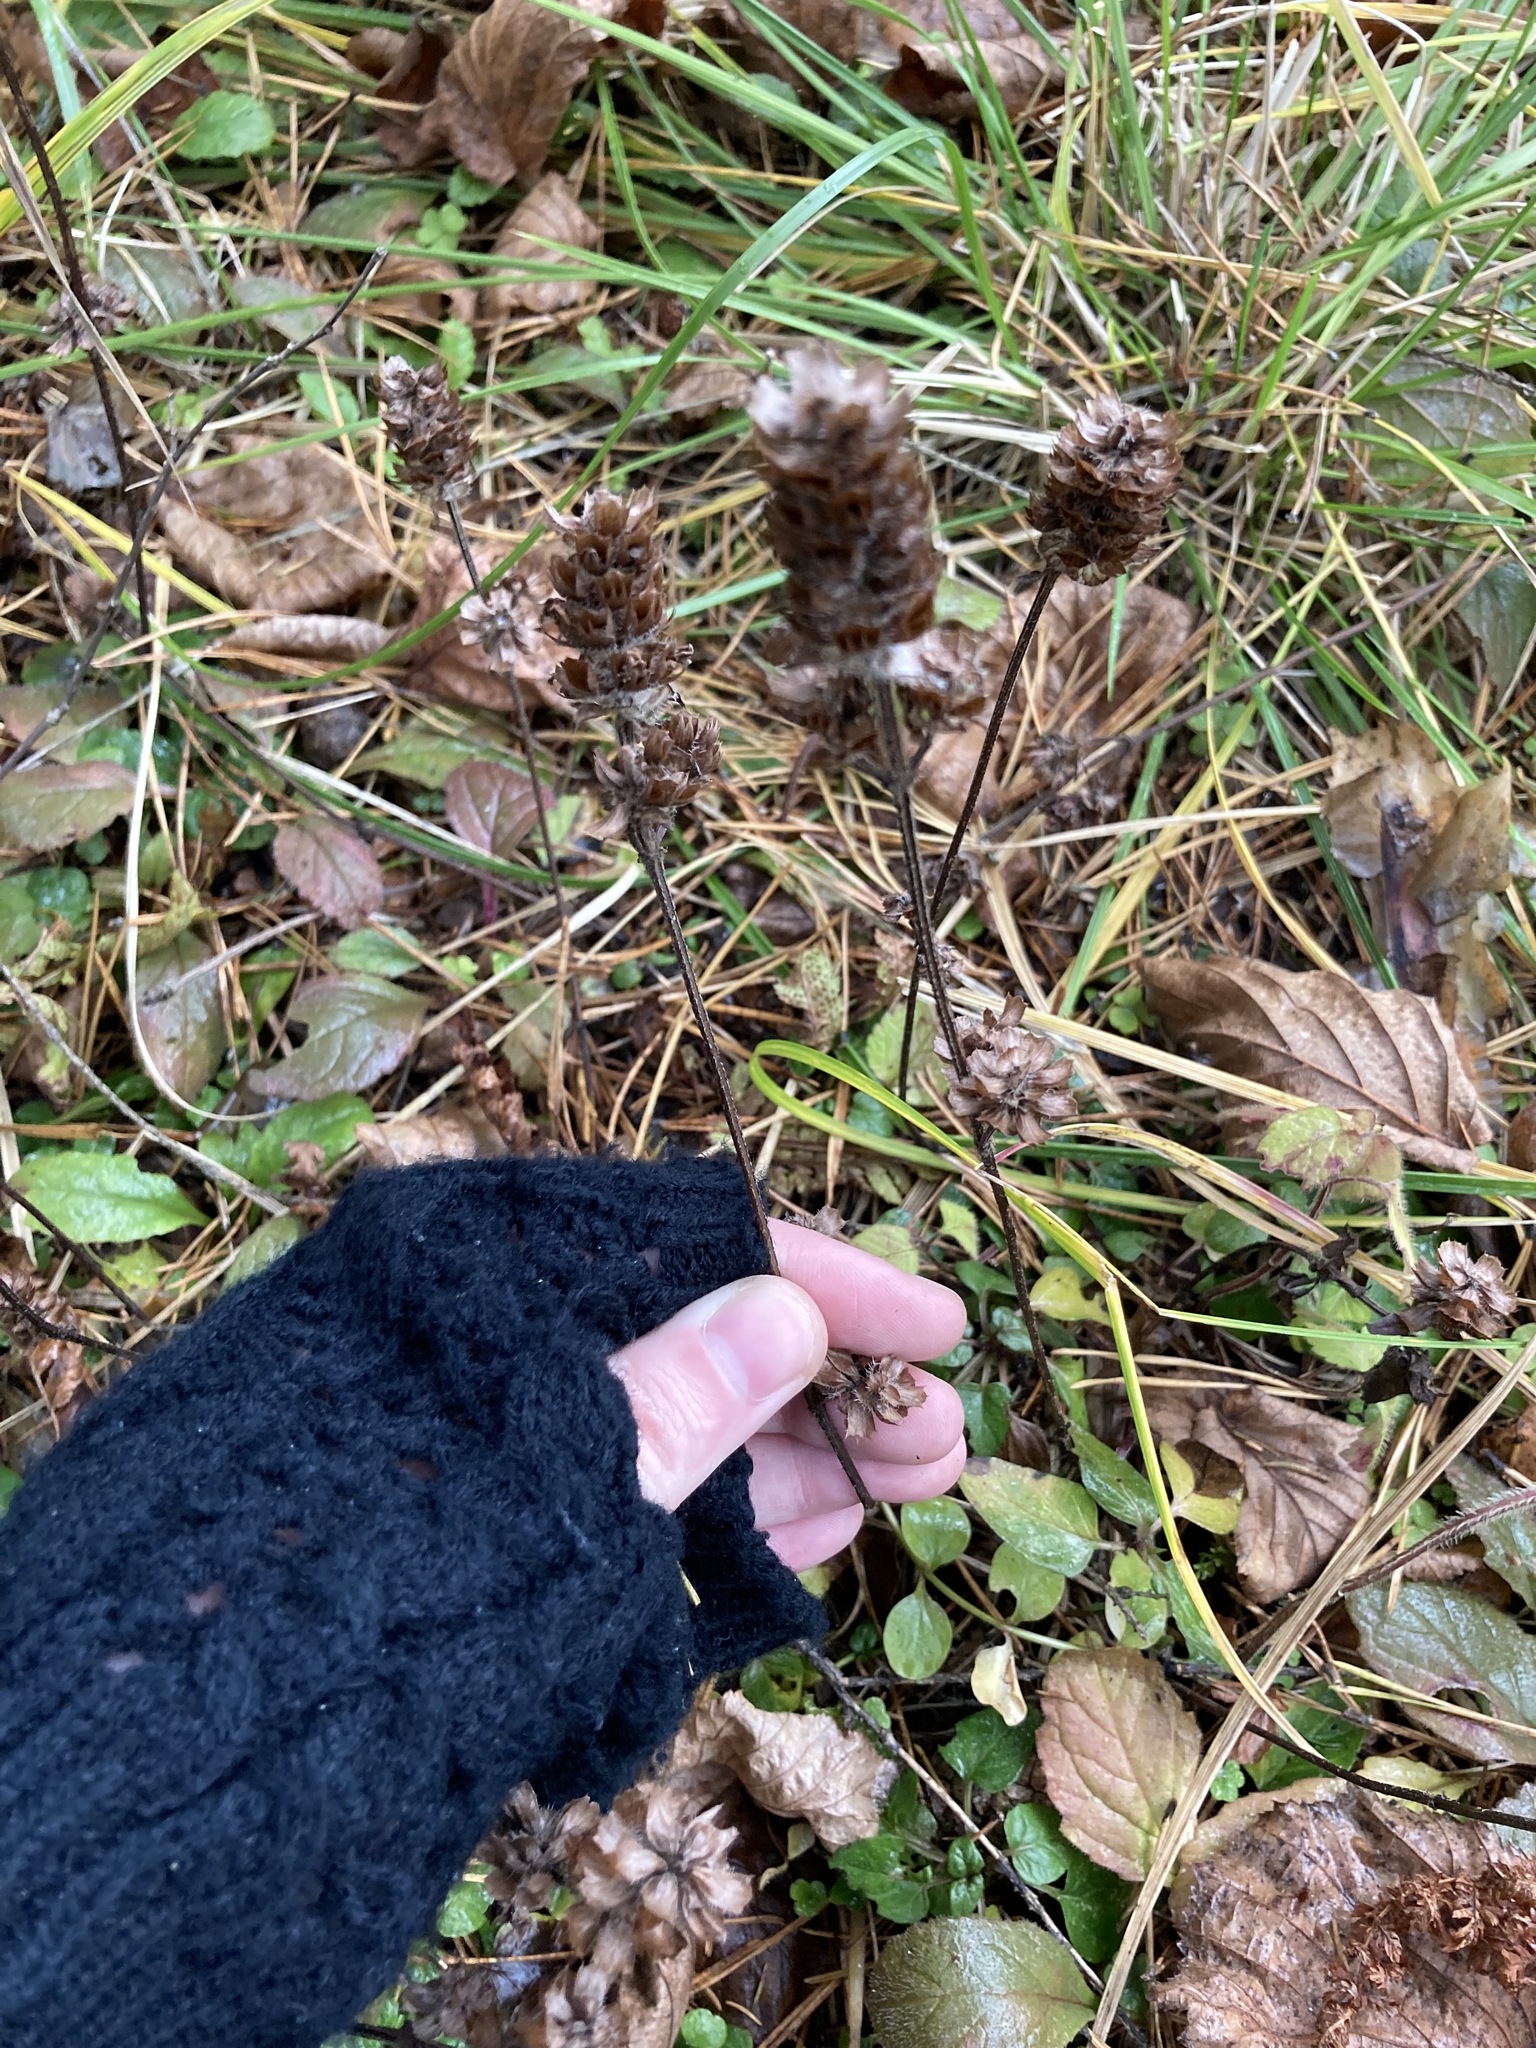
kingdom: Plantae
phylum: Tracheophyta
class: Magnoliopsida
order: Lamiales
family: Lamiaceae
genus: Prunella
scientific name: Prunella vulgaris
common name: Heal-all
